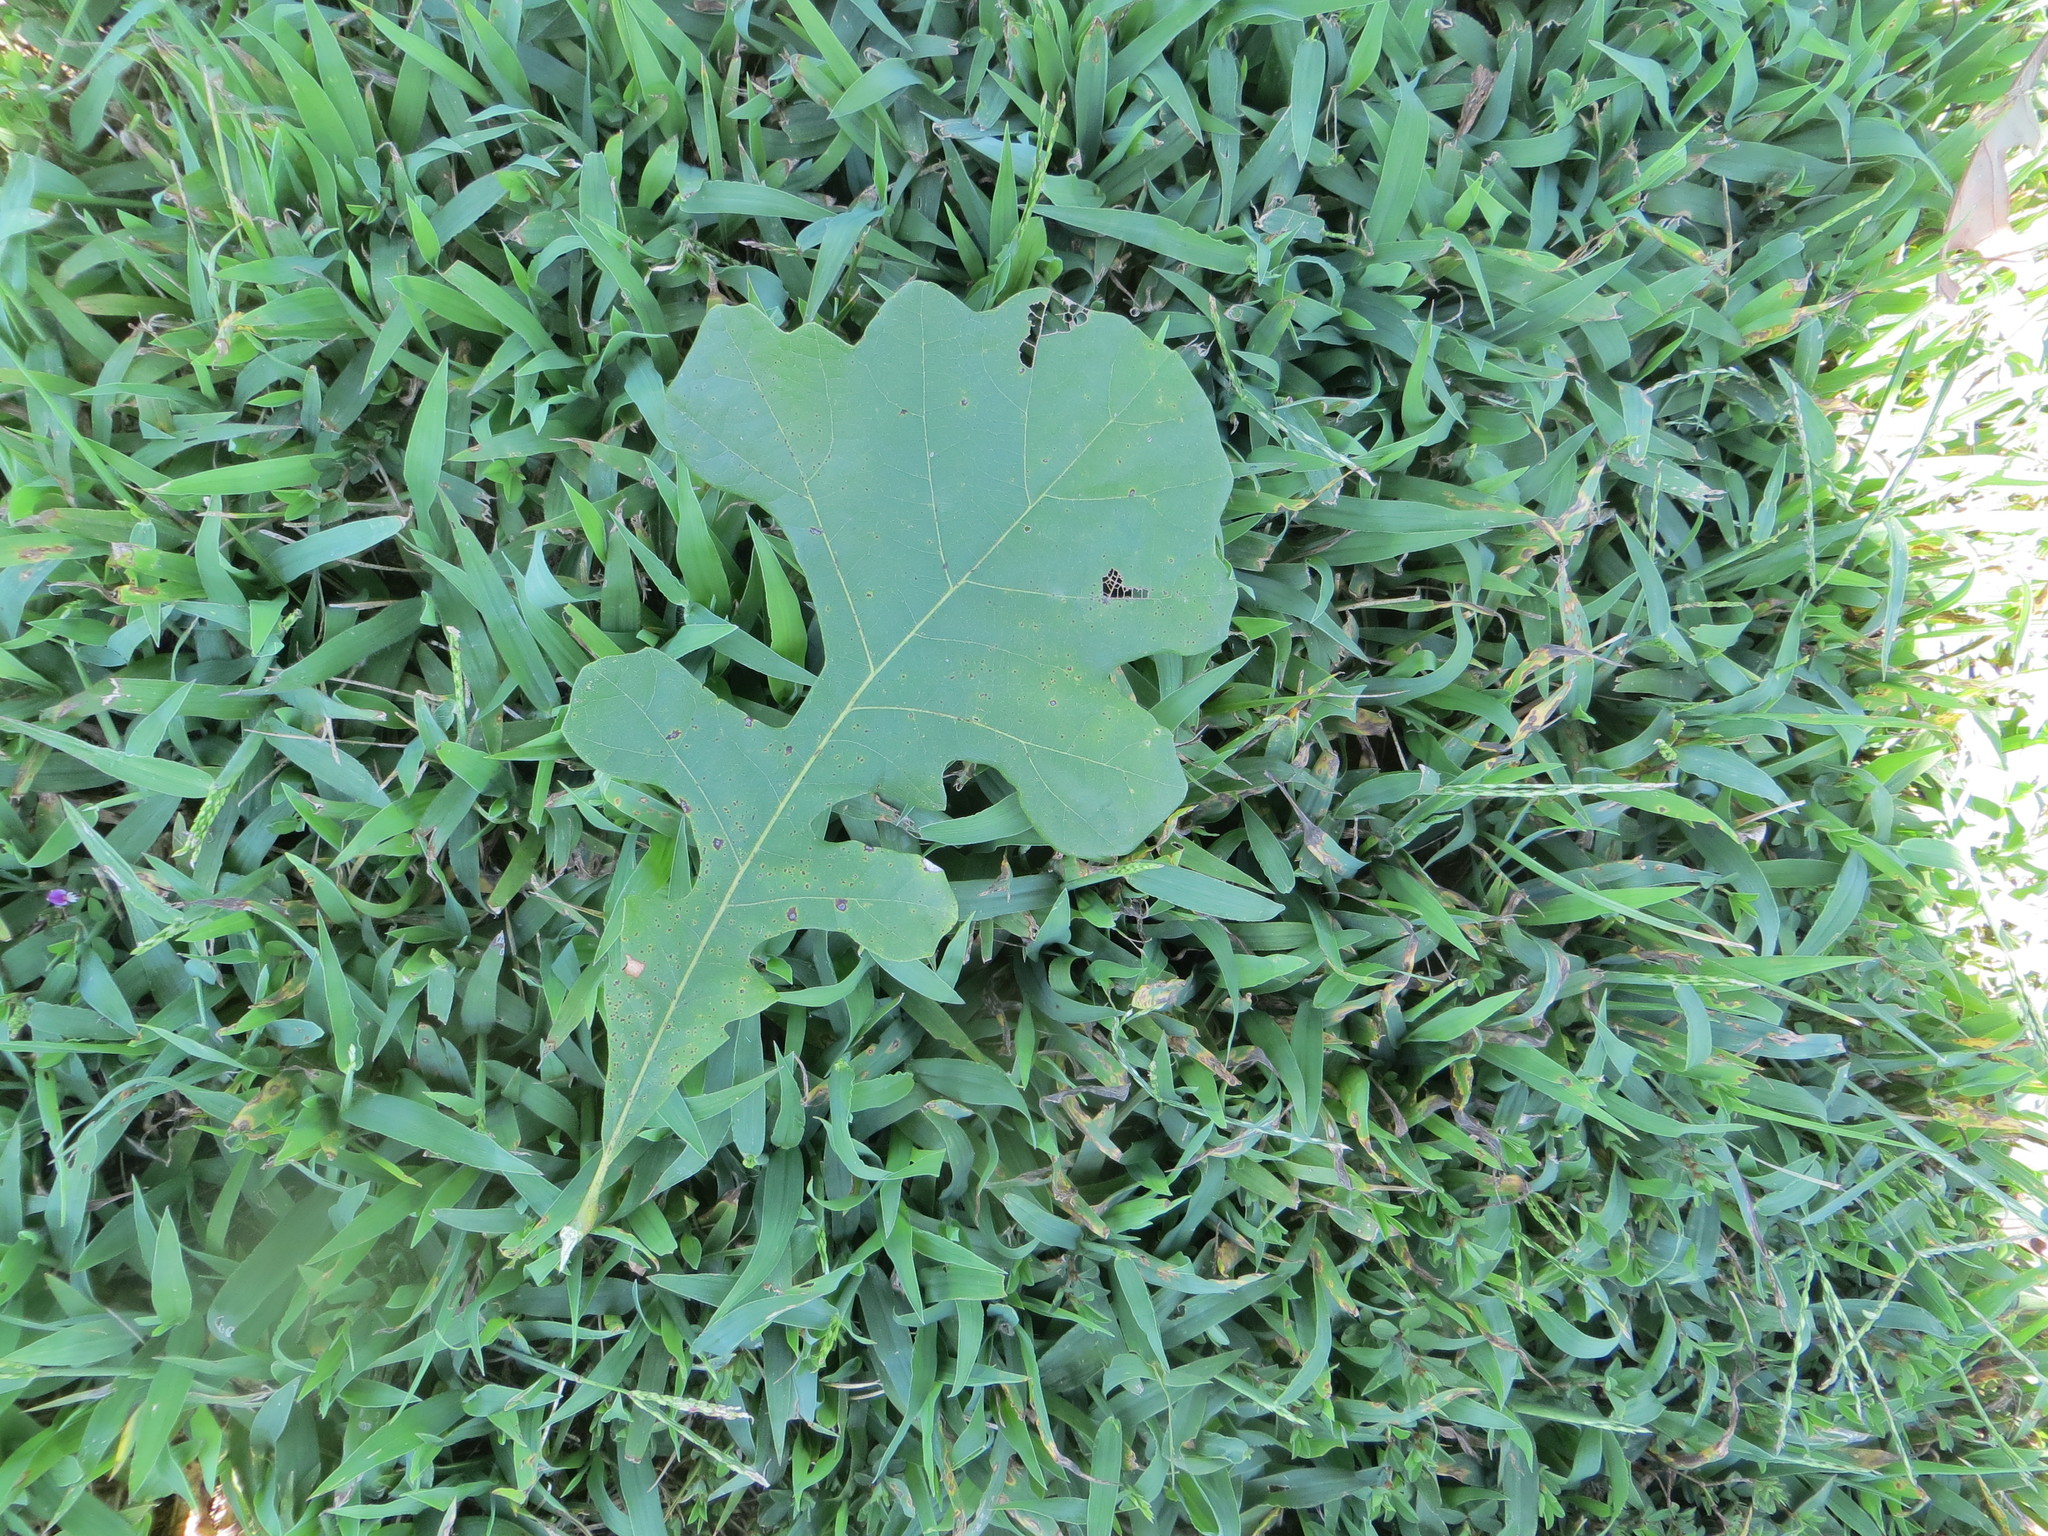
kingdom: Plantae
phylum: Tracheophyta
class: Magnoliopsida
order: Fagales
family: Fagaceae
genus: Quercus
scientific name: Quercus macrocarpa
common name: Bur oak
